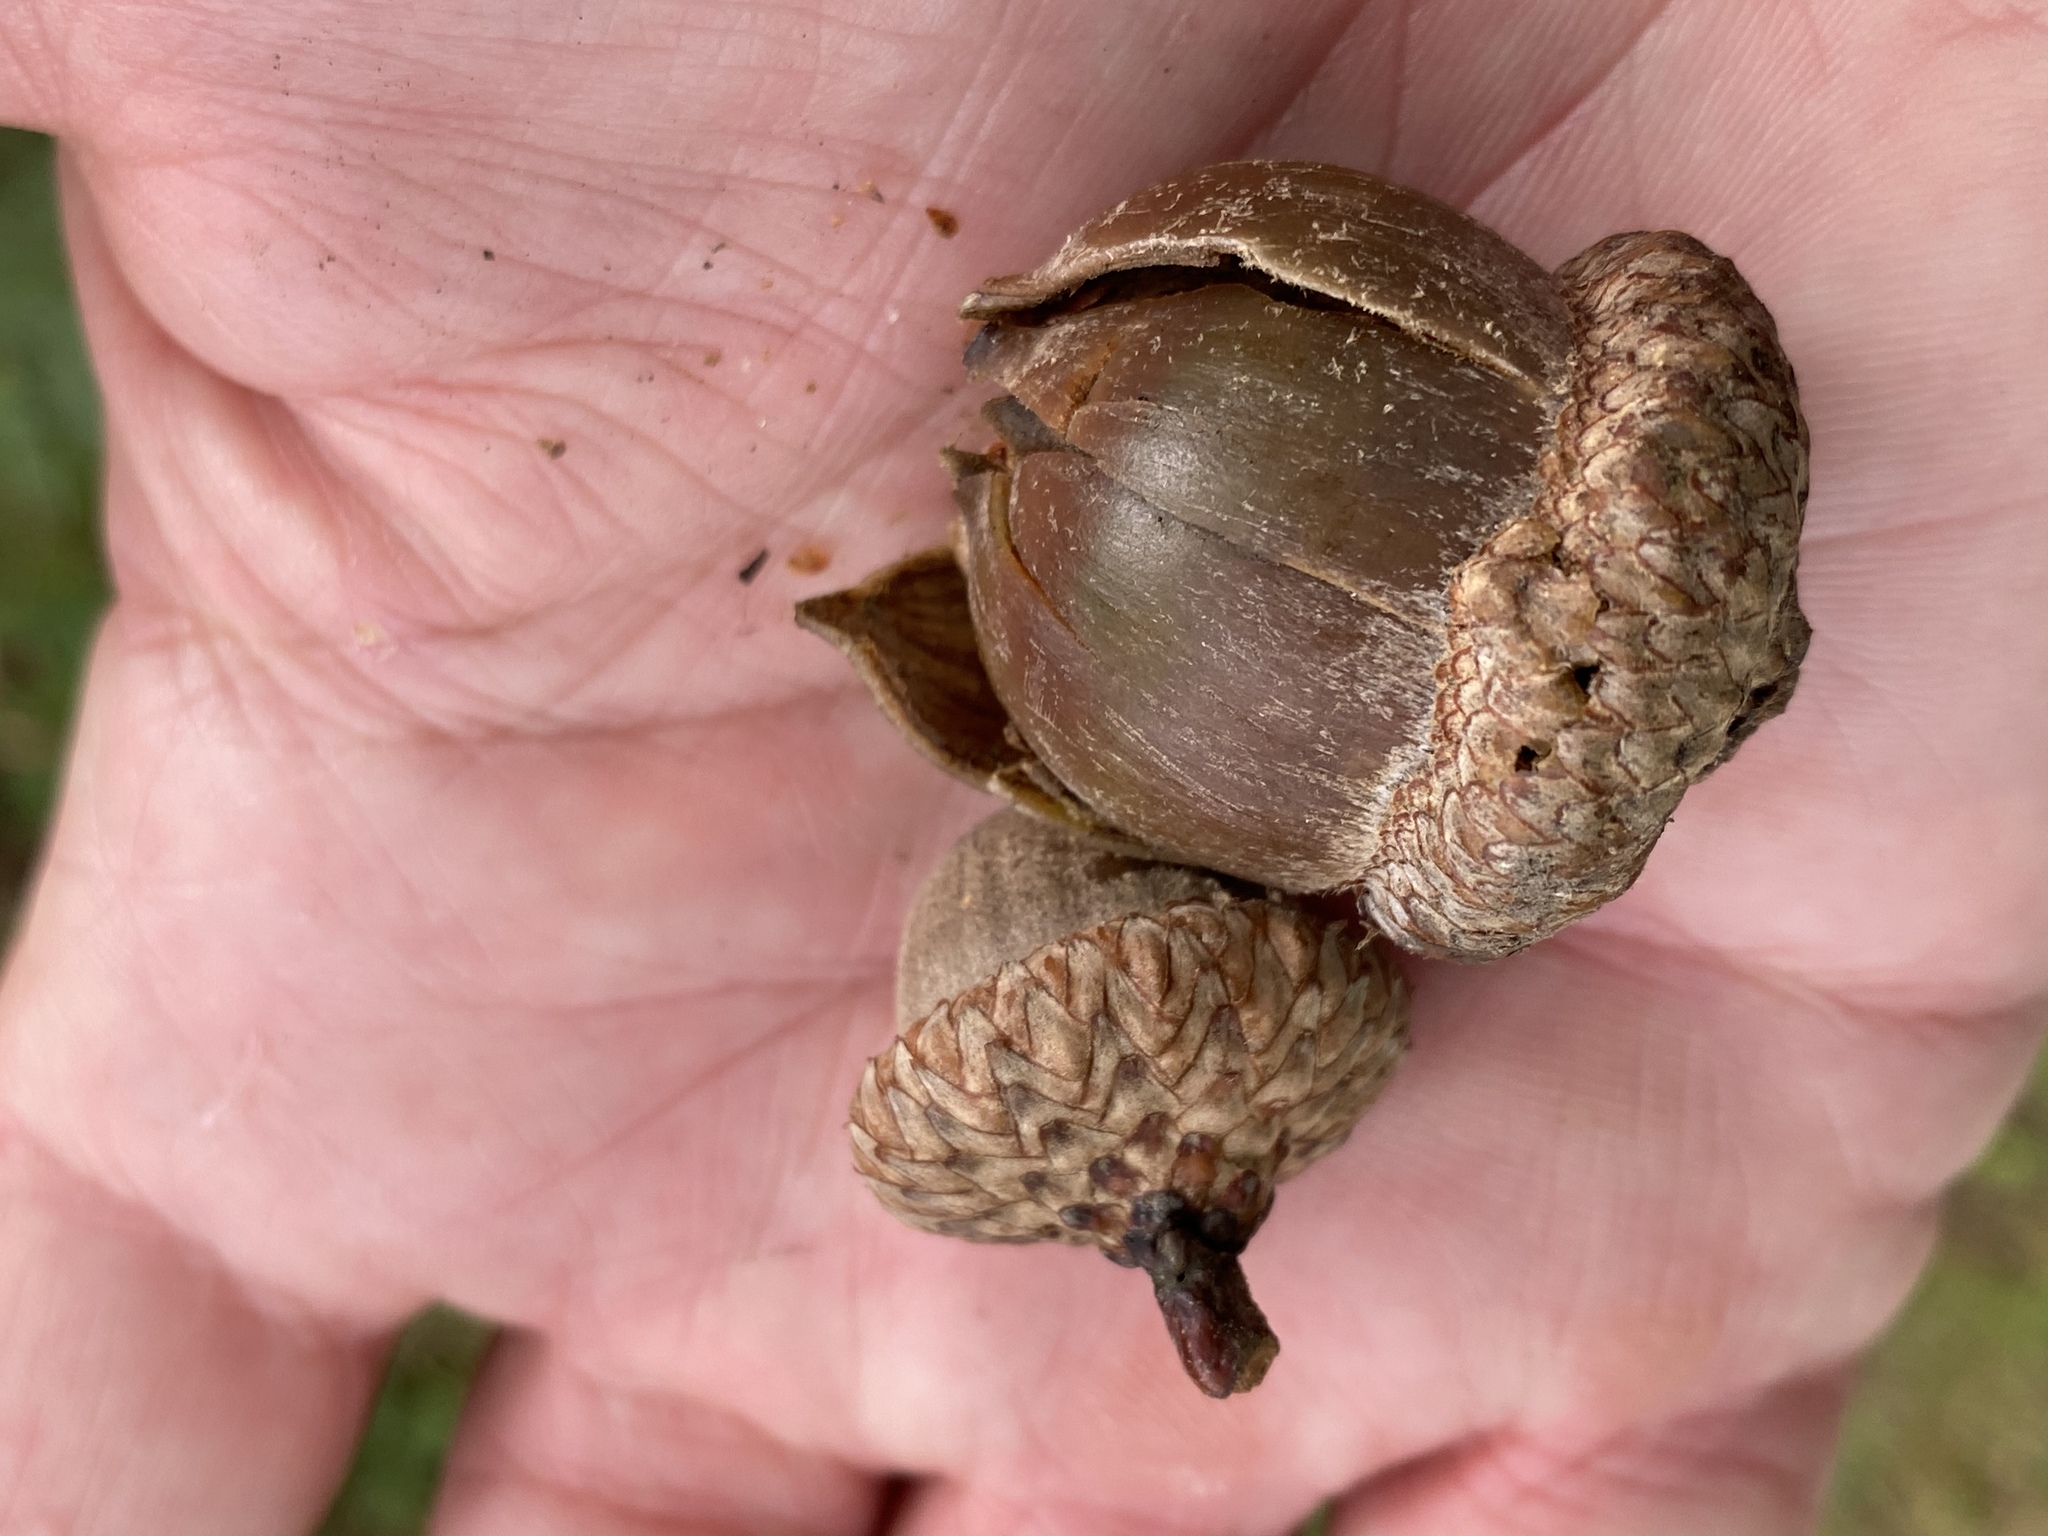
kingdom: Plantae
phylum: Tracheophyta
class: Magnoliopsida
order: Fagales
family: Fagaceae
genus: Quercus
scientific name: Quercus velutina
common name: Black oak
